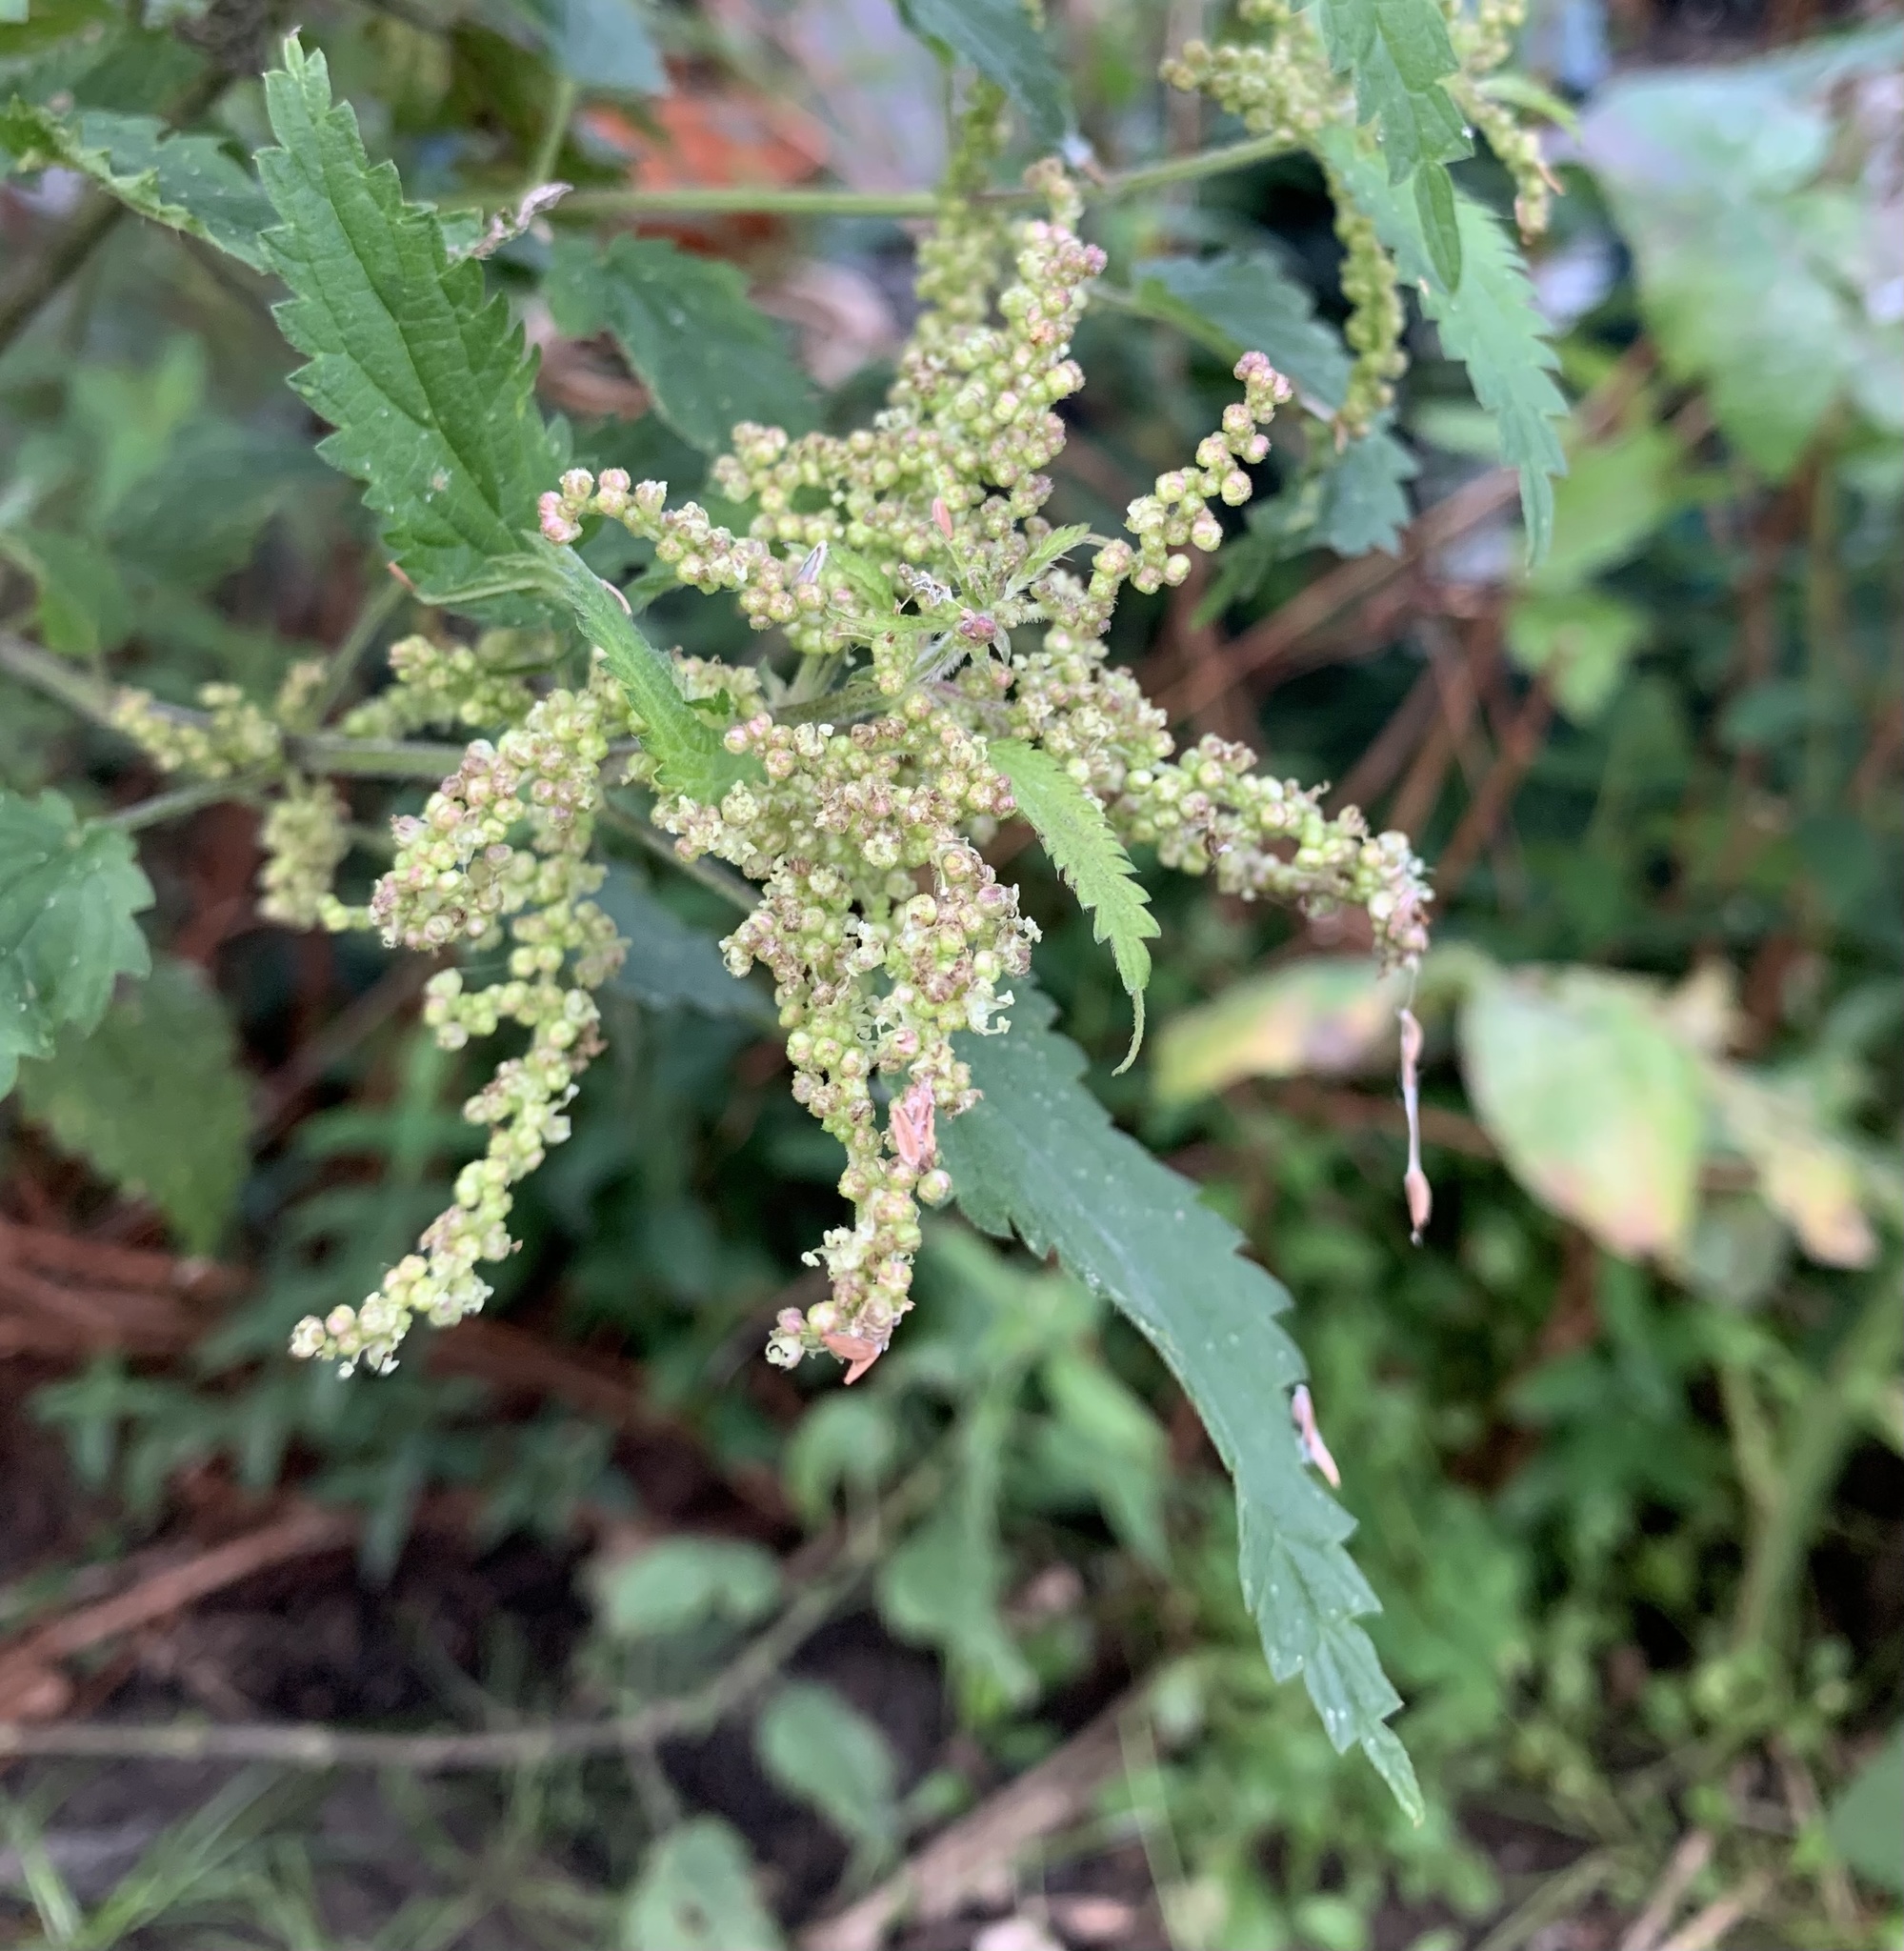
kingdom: Plantae
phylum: Tracheophyta
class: Magnoliopsida
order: Rosales
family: Urticaceae
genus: Urtica
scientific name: Urtica dioica
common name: Common nettle
